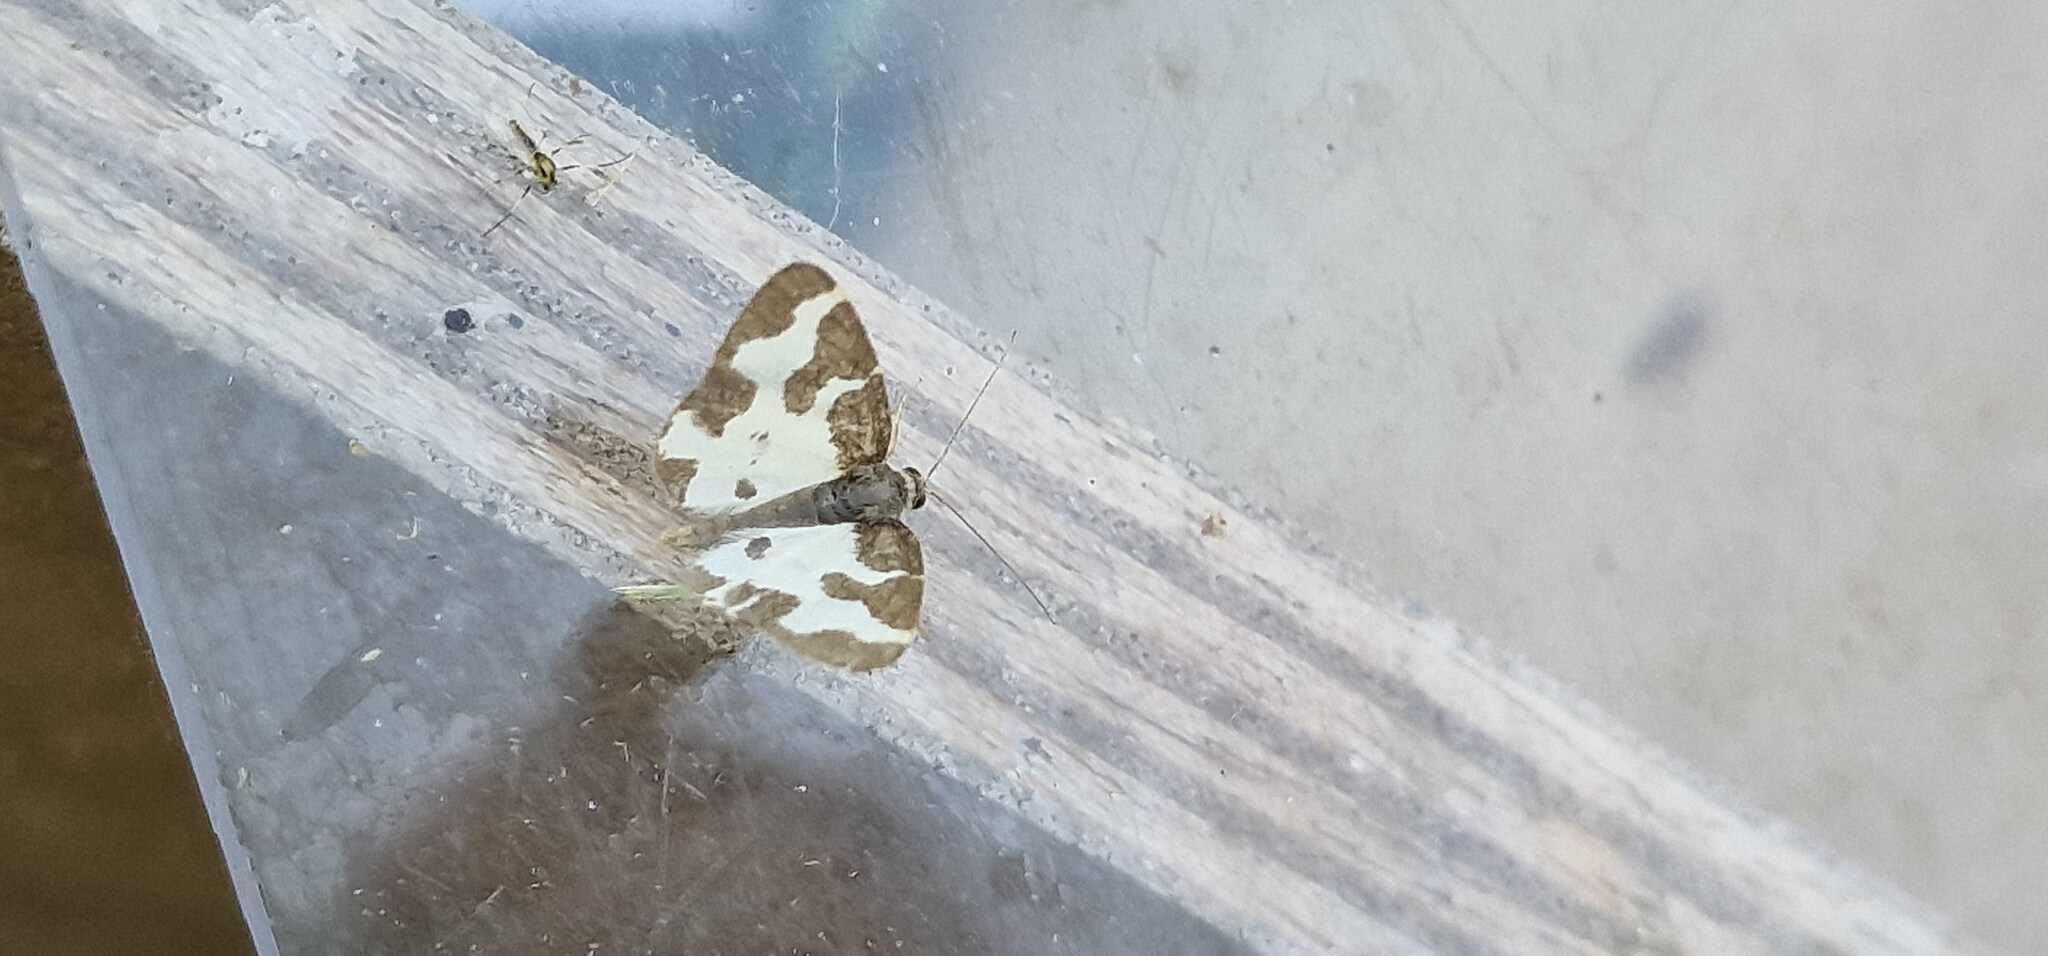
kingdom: Animalia
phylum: Arthropoda
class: Insecta
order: Lepidoptera
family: Geometridae
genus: Lomaspilis
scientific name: Lomaspilis marginata
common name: Clouded border
